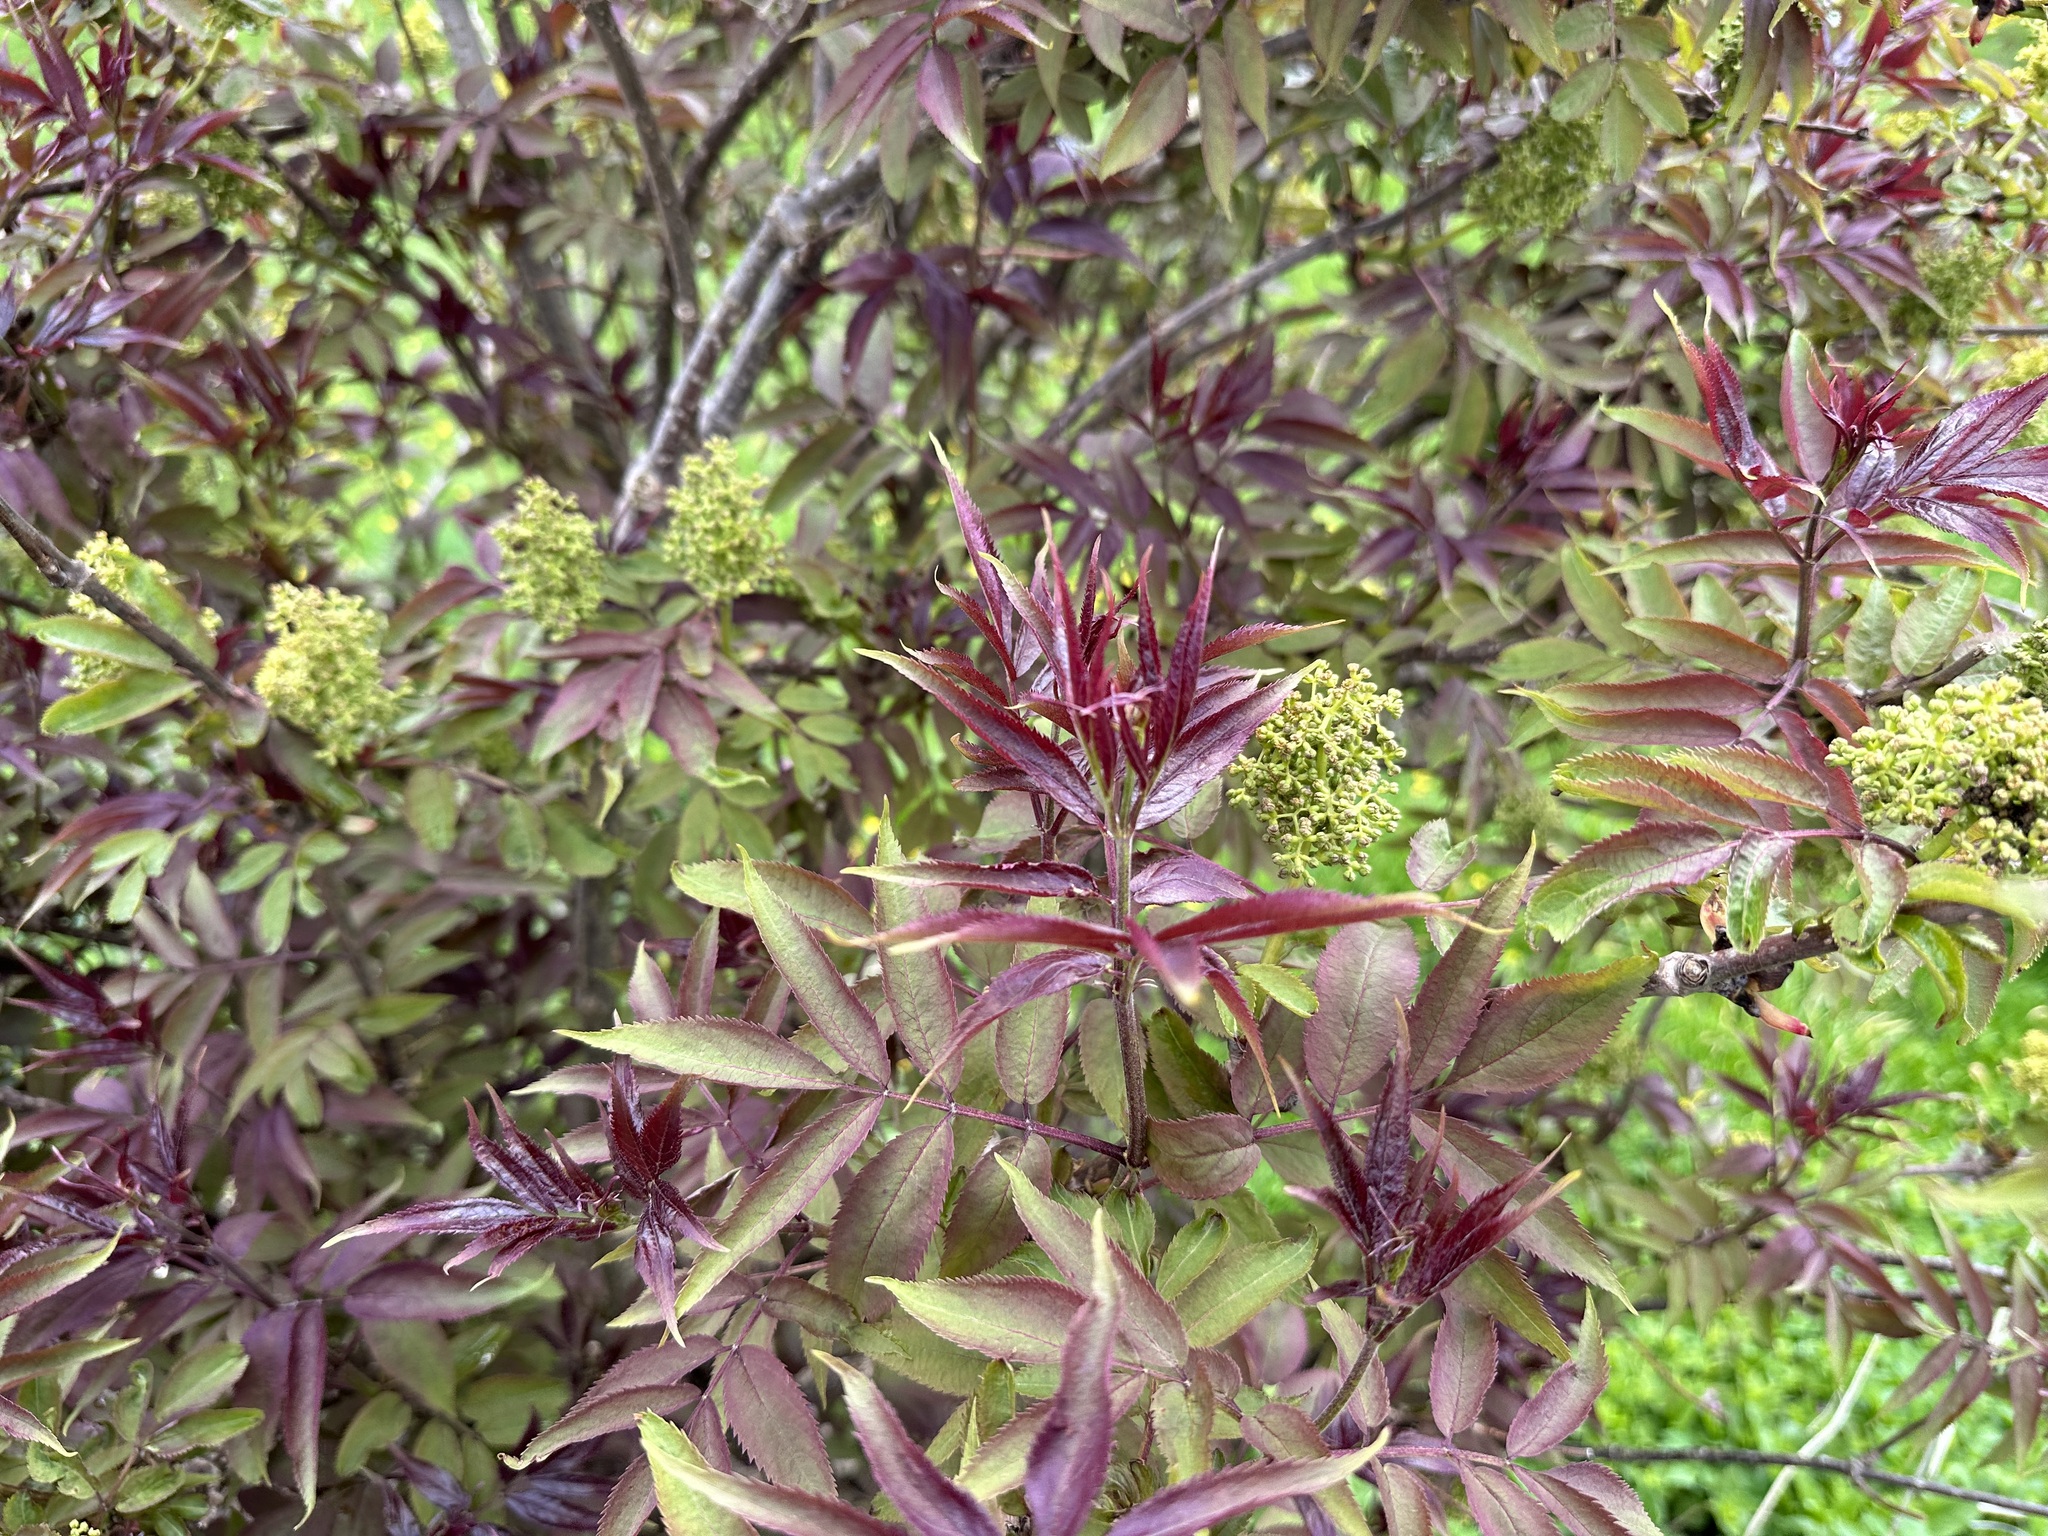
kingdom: Plantae
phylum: Tracheophyta
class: Magnoliopsida
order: Dipsacales
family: Viburnaceae
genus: Sambucus
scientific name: Sambucus racemosa
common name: Red-berried elder
